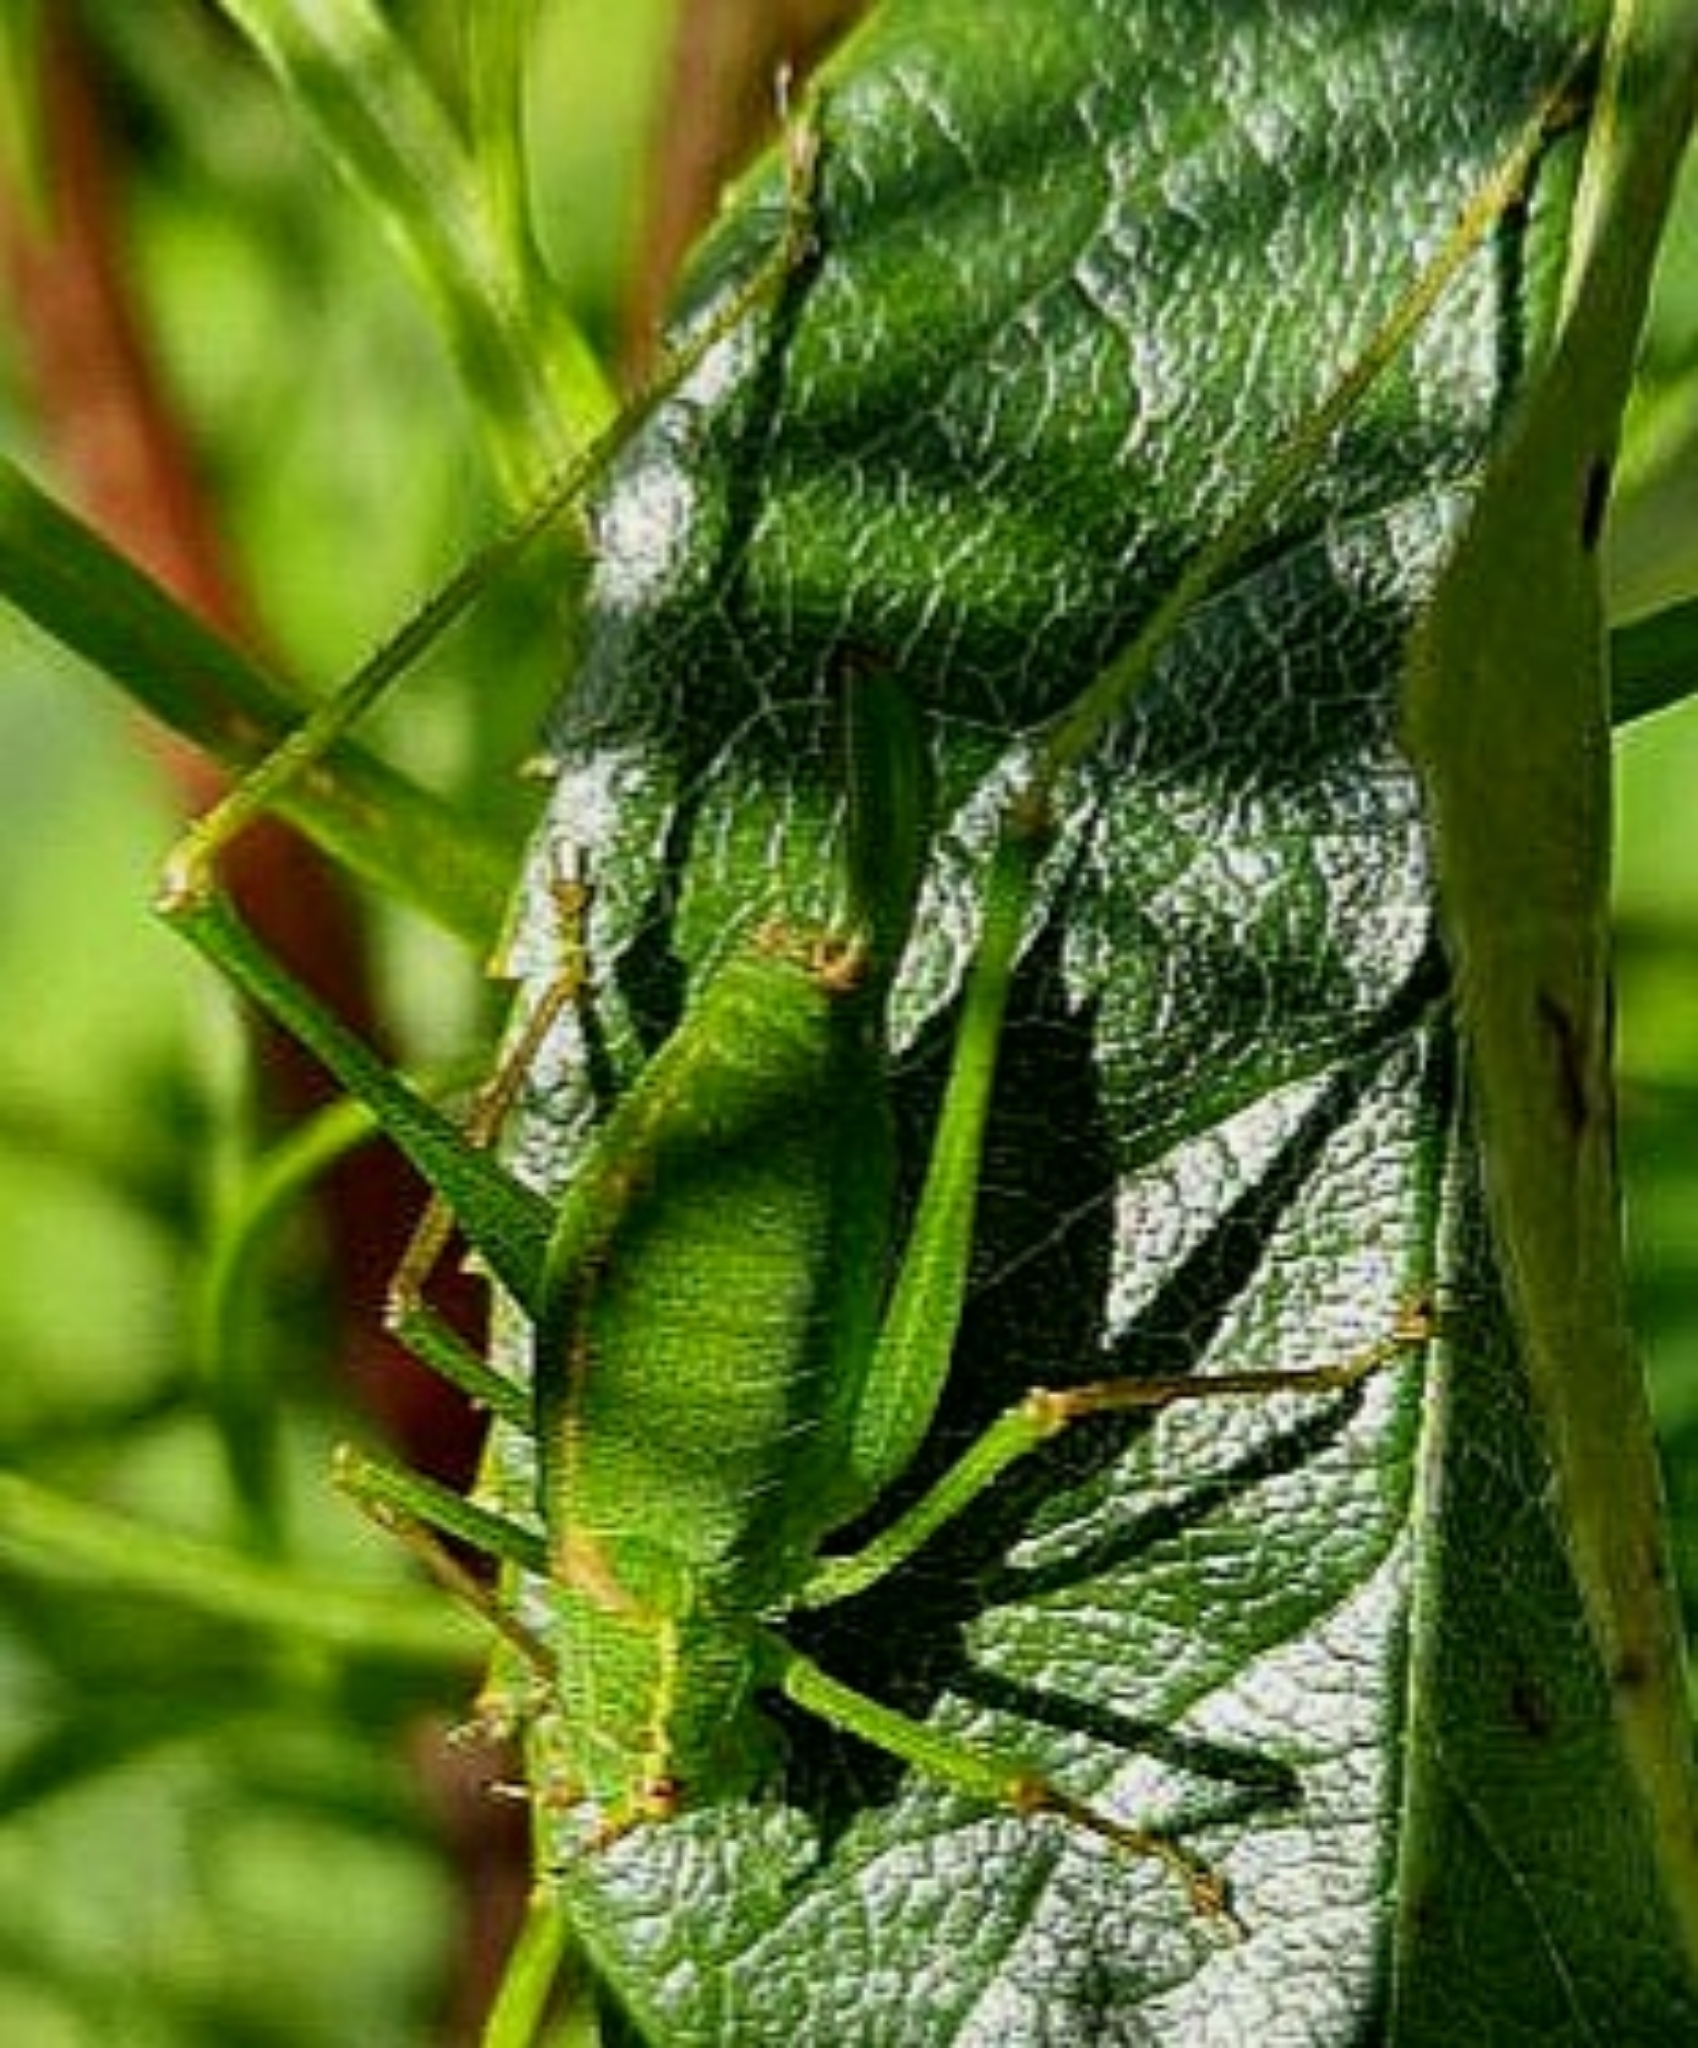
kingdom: Animalia
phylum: Arthropoda
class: Insecta
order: Orthoptera
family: Tettigoniidae
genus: Leptophyes
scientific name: Leptophyes punctatissima
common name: Speckled bush-cricket
